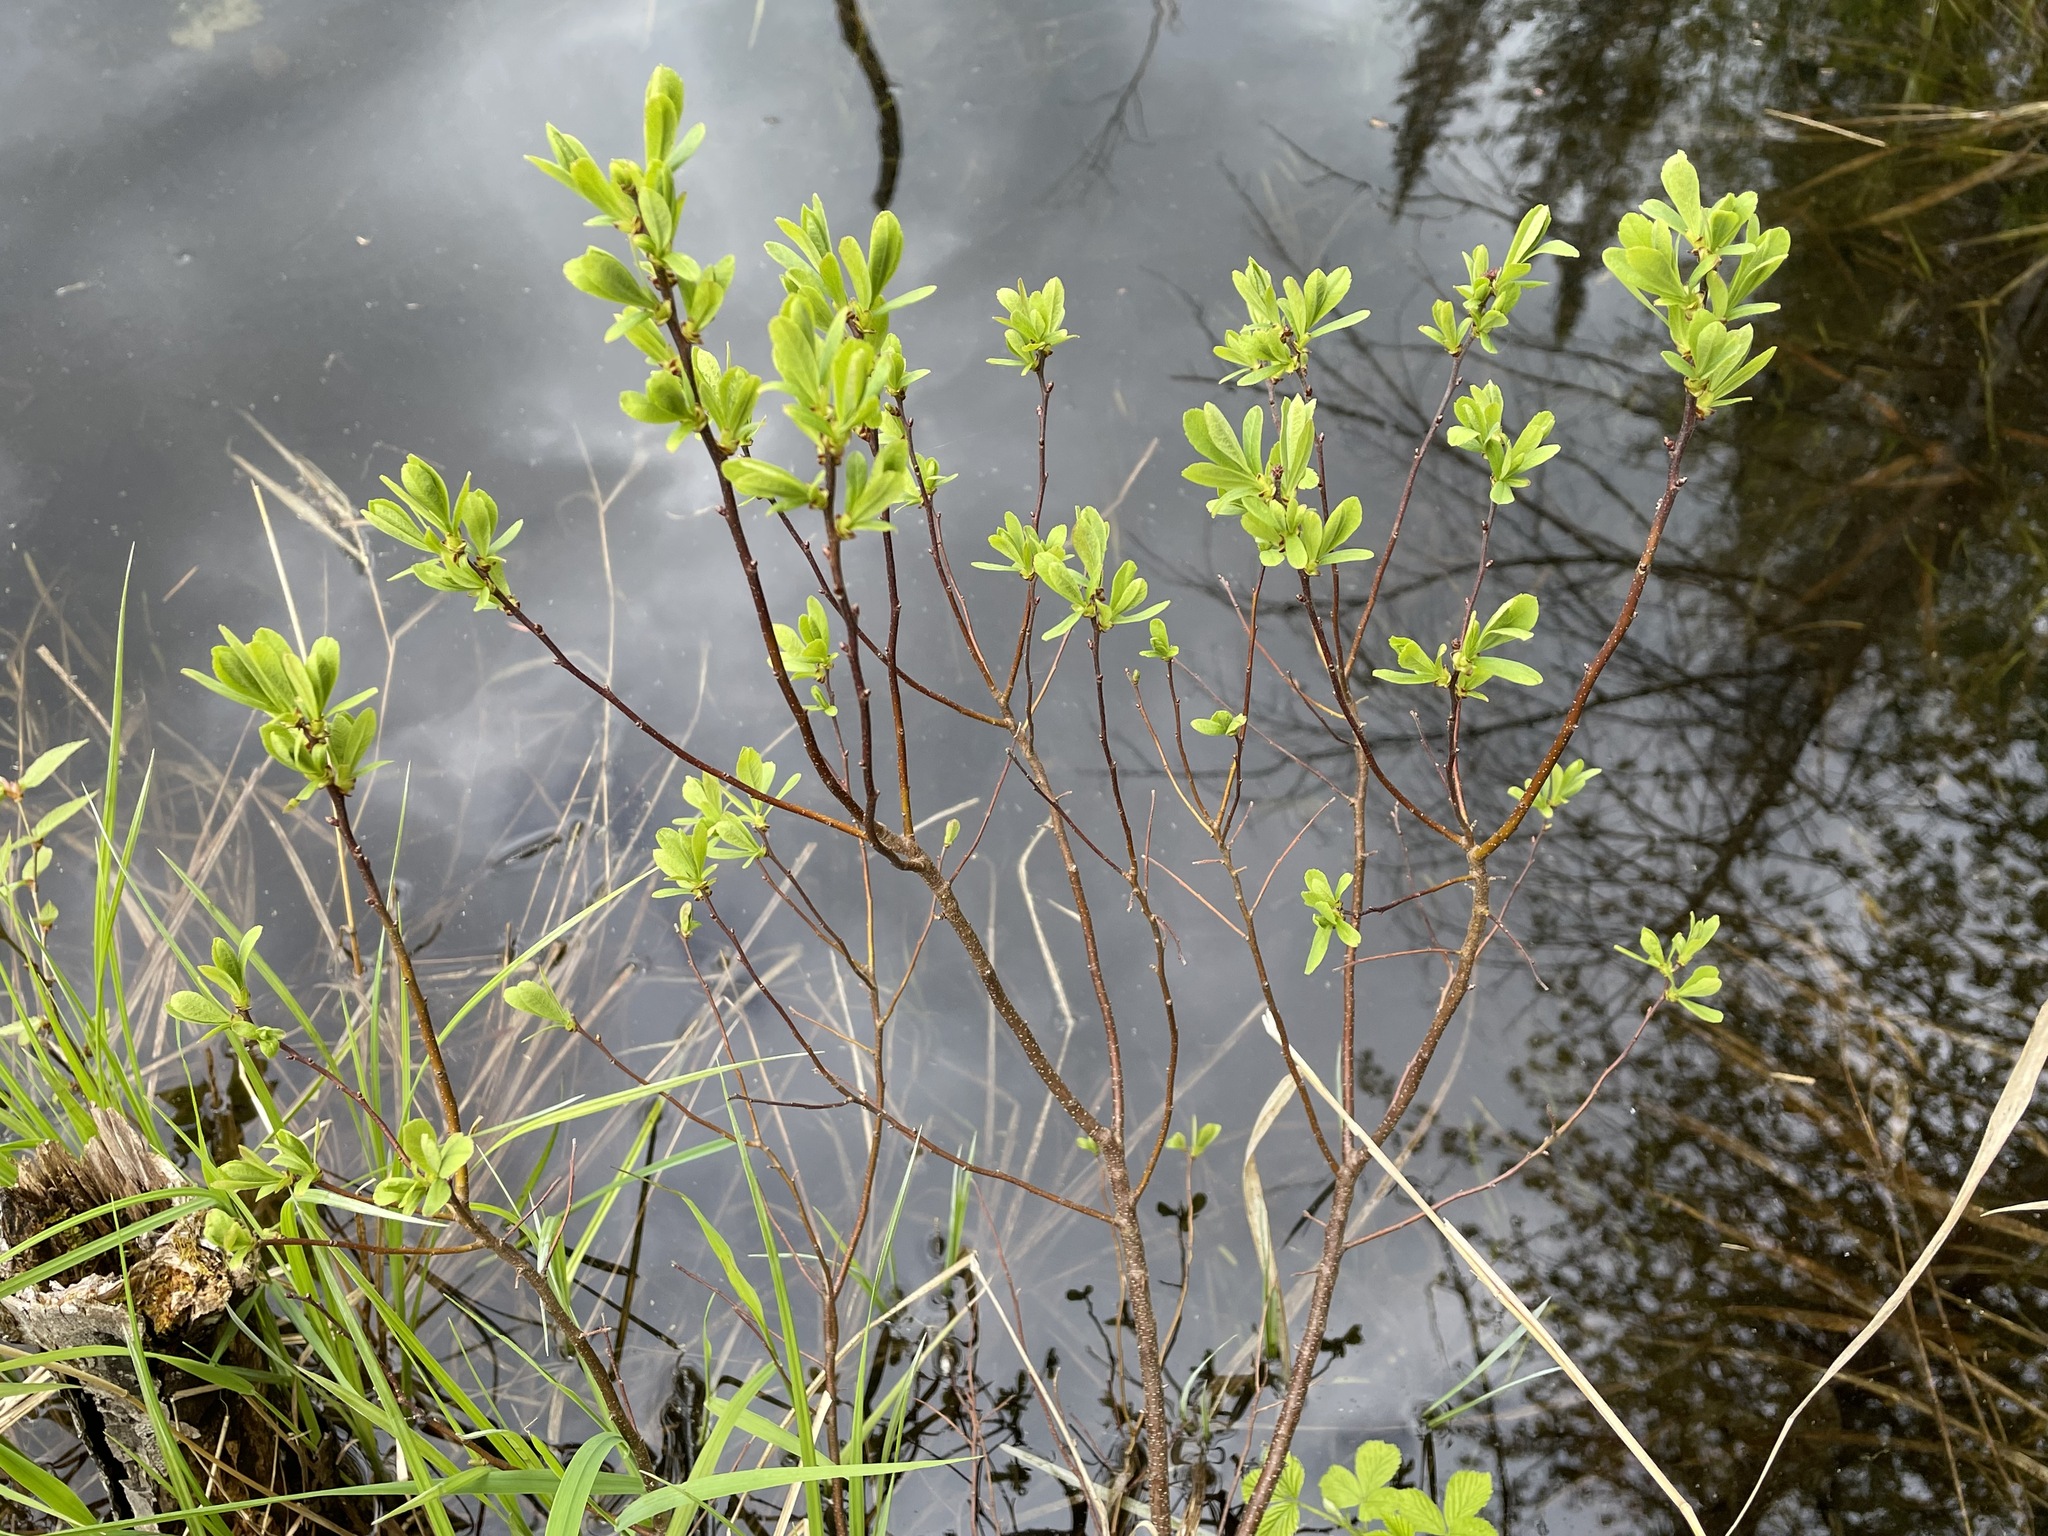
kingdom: Plantae
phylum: Tracheophyta
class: Magnoliopsida
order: Fagales
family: Myricaceae
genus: Myrica
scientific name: Myrica gale
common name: Sweet gale
